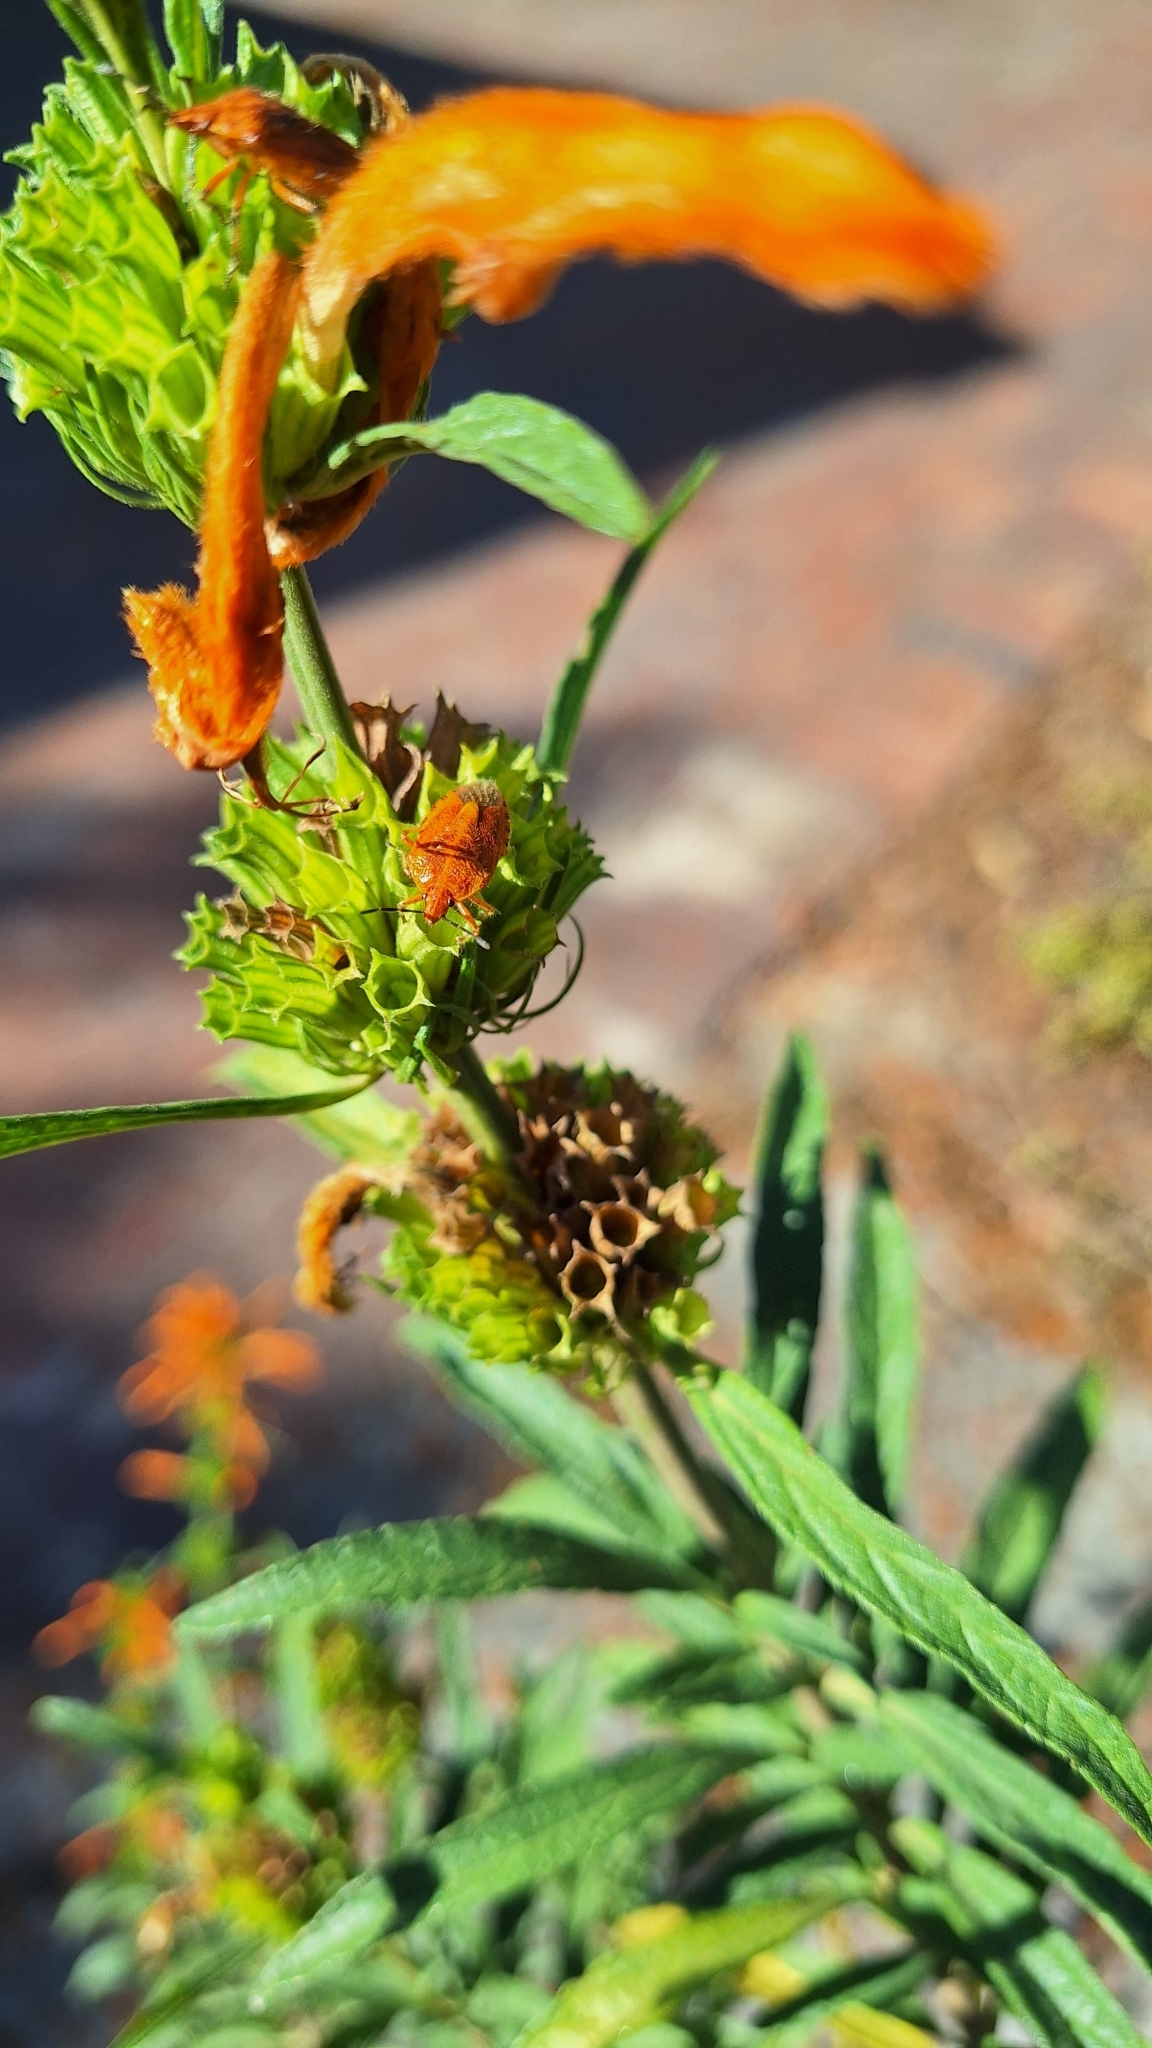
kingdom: Animalia
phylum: Arthropoda
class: Insecta
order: Hemiptera
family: Pentatomidae
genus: Agonoscelis
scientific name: Agonoscelis
